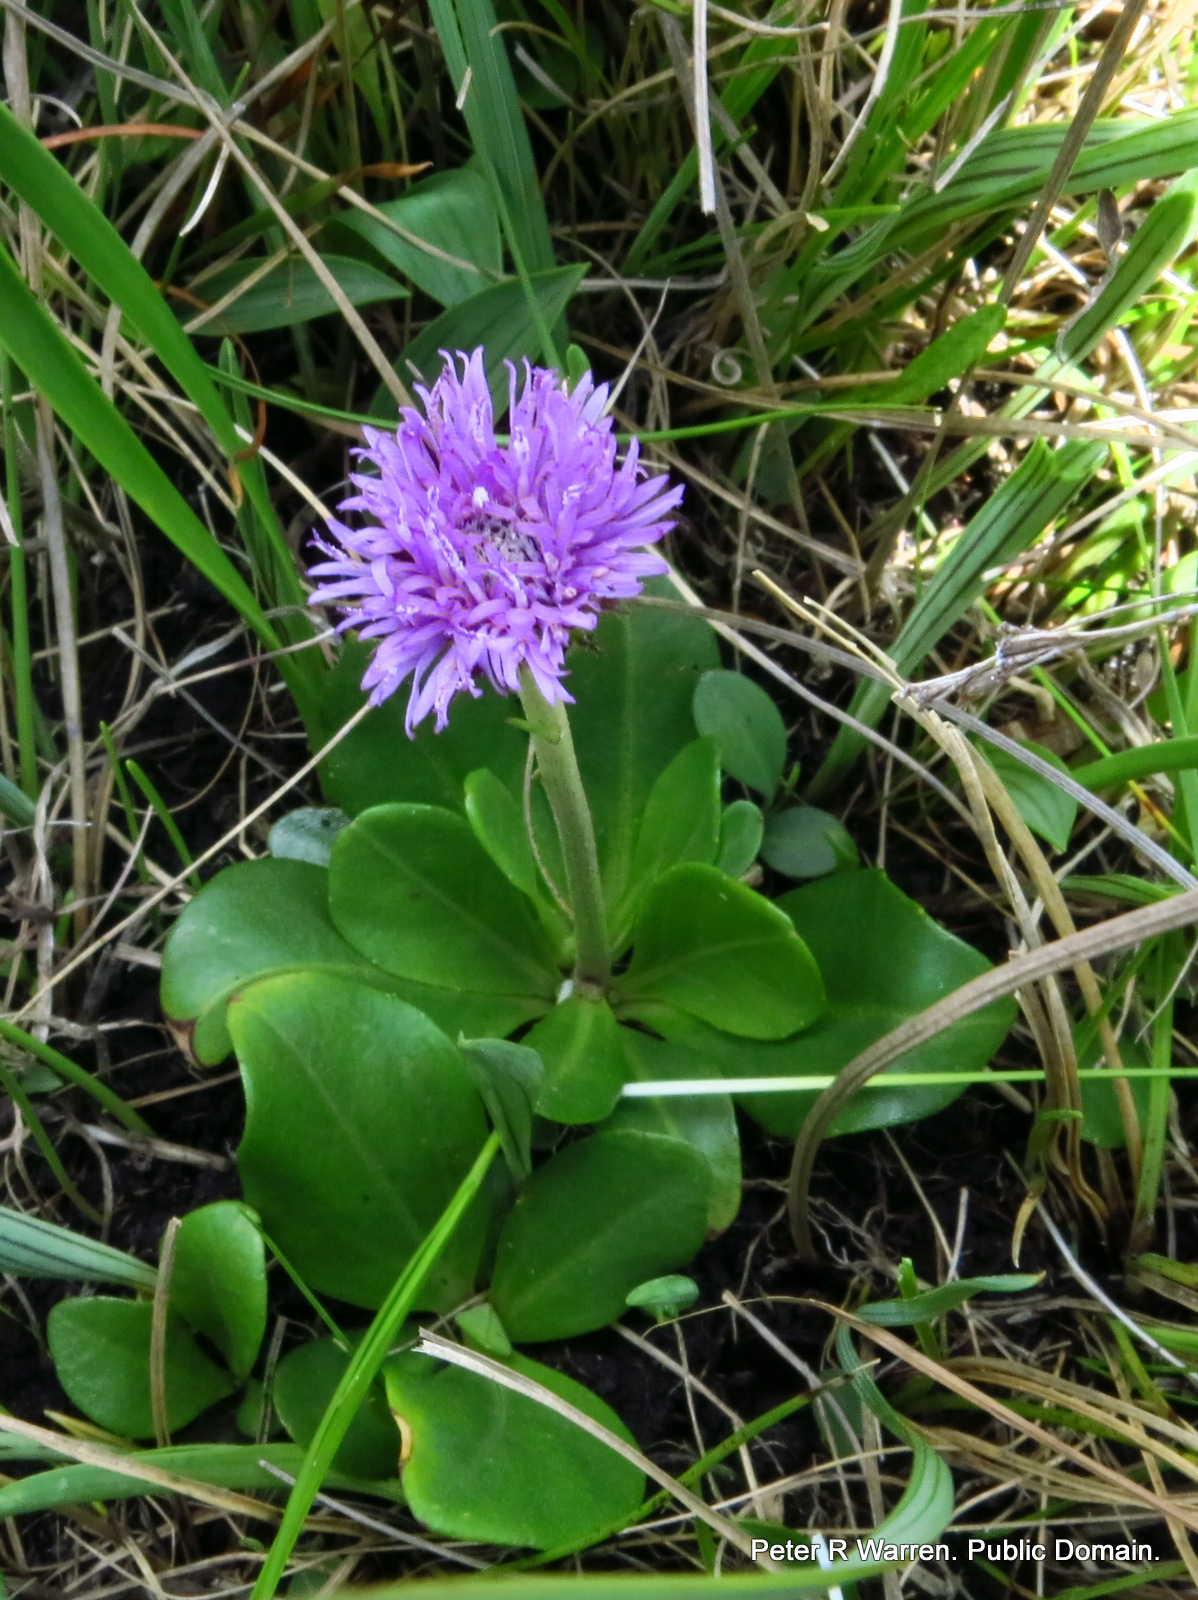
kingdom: Plantae
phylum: Tracheophyta
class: Magnoliopsida
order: Asterales
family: Asteraceae
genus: Pseudopegolettia
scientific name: Pseudopegolettia thodei
